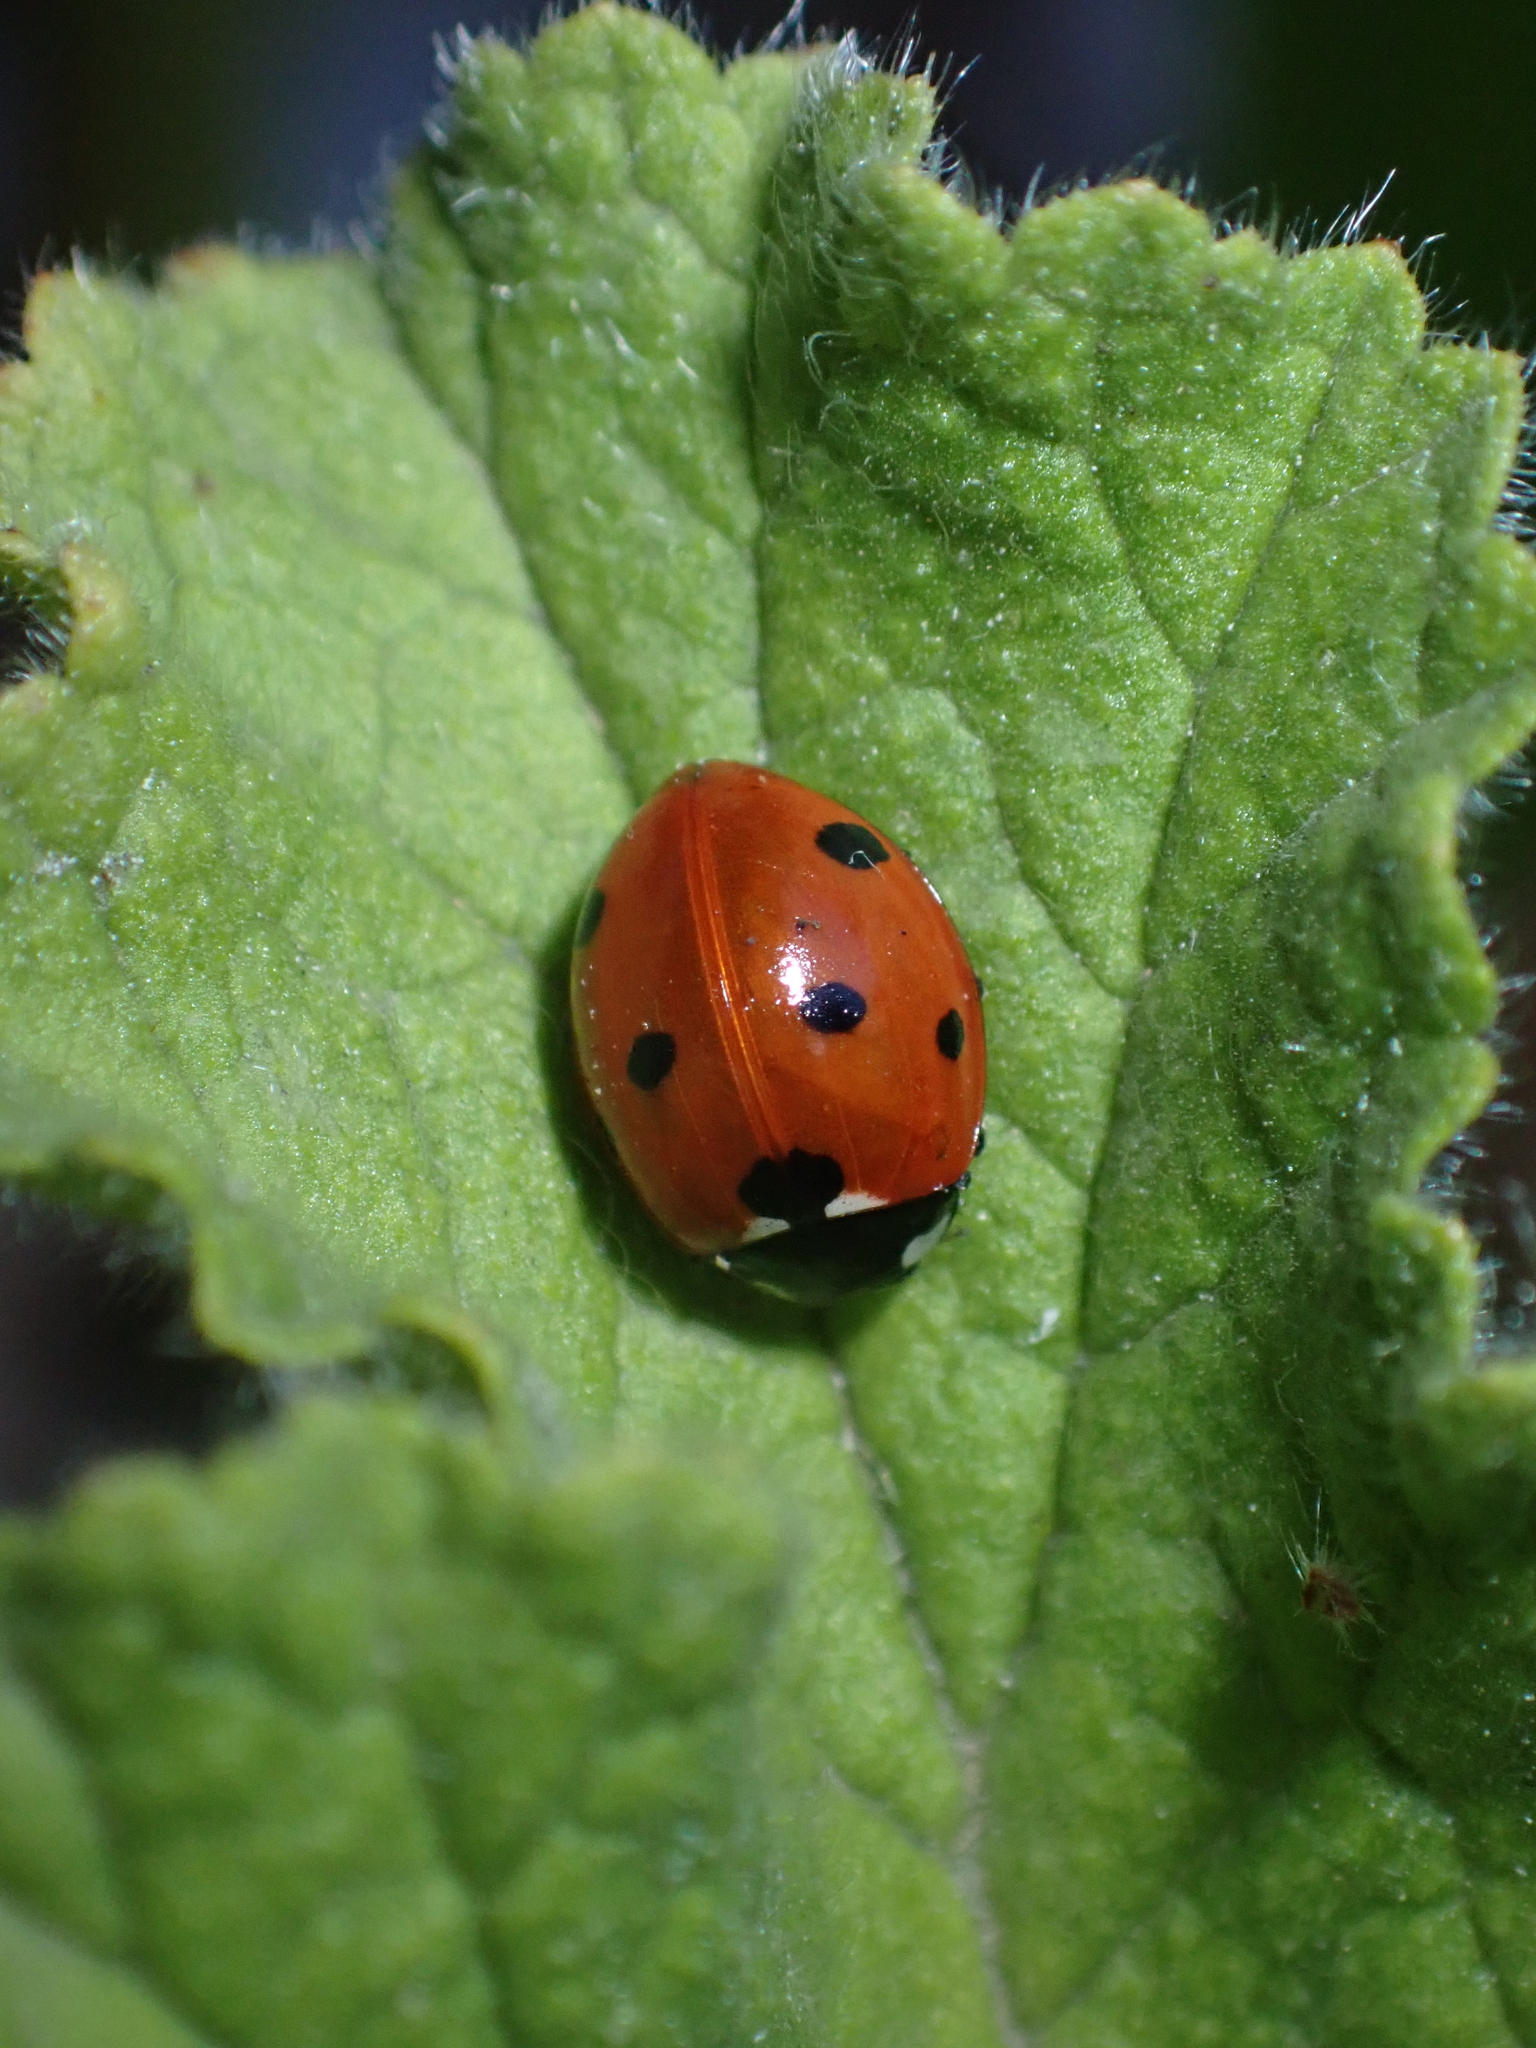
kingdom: Animalia
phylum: Arthropoda
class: Insecta
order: Coleoptera
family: Coccinellidae
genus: Coccinella
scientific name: Coccinella septempunctata
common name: Sevenspotted lady beetle
